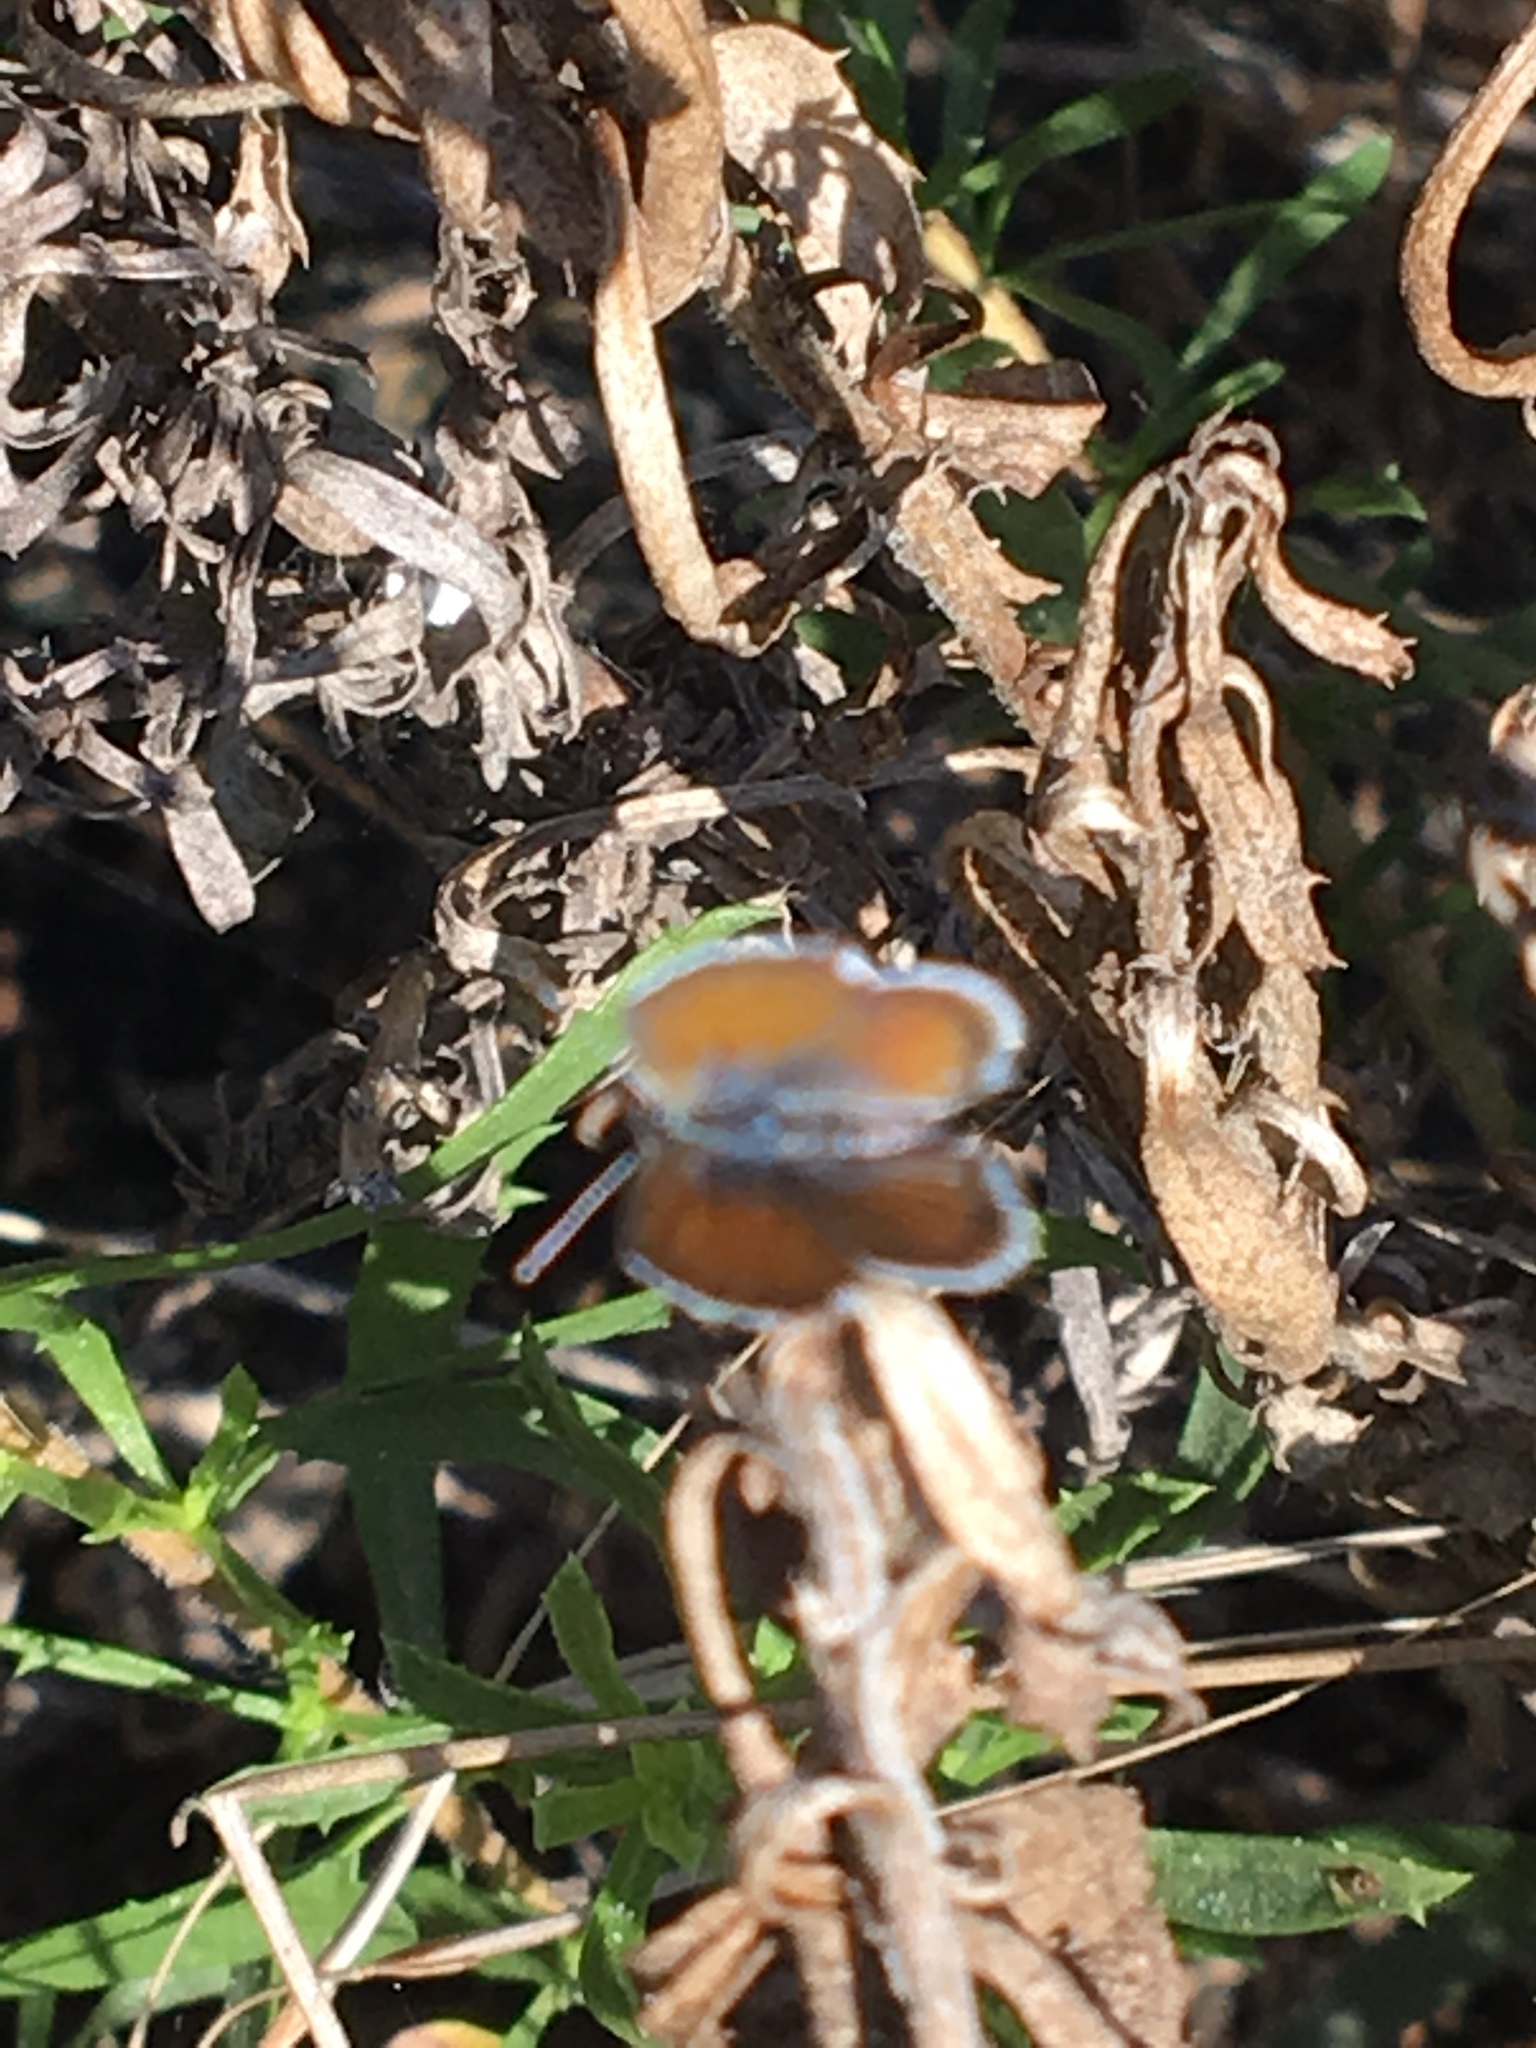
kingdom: Animalia
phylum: Arthropoda
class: Insecta
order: Lepidoptera
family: Lycaenidae
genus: Brephidium
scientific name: Brephidium exilis
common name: Pygmy blue
